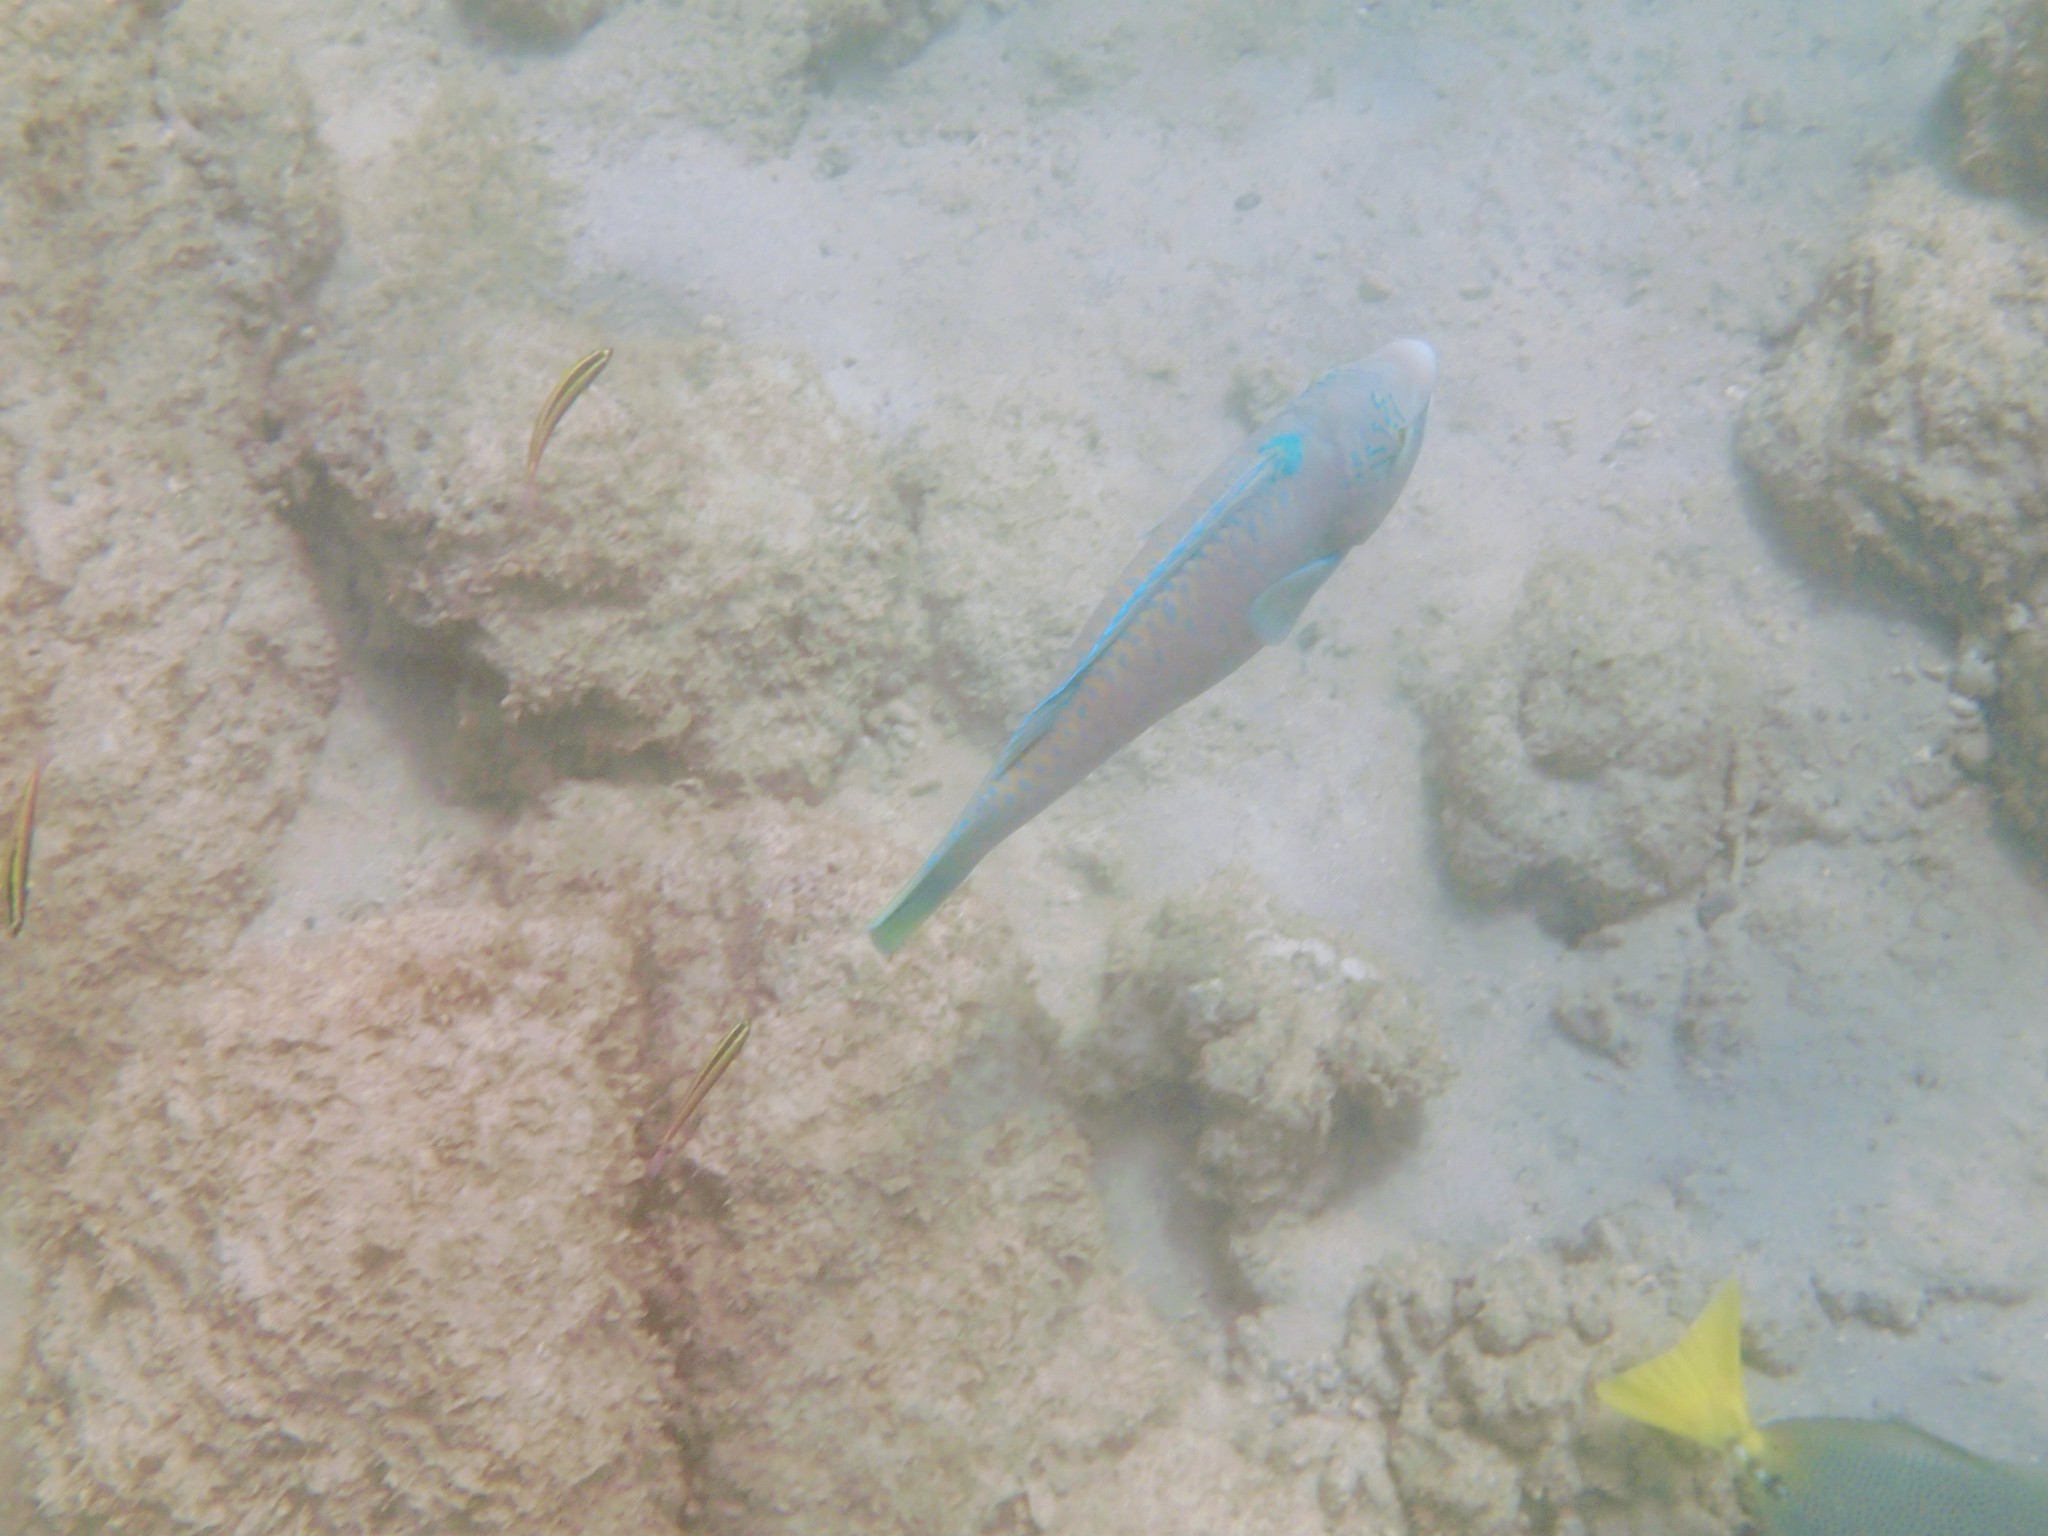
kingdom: Animalia
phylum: Chordata
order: Perciformes
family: Scaridae
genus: Scarus
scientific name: Scarus ghobban
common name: Blue-barred parrotfish
